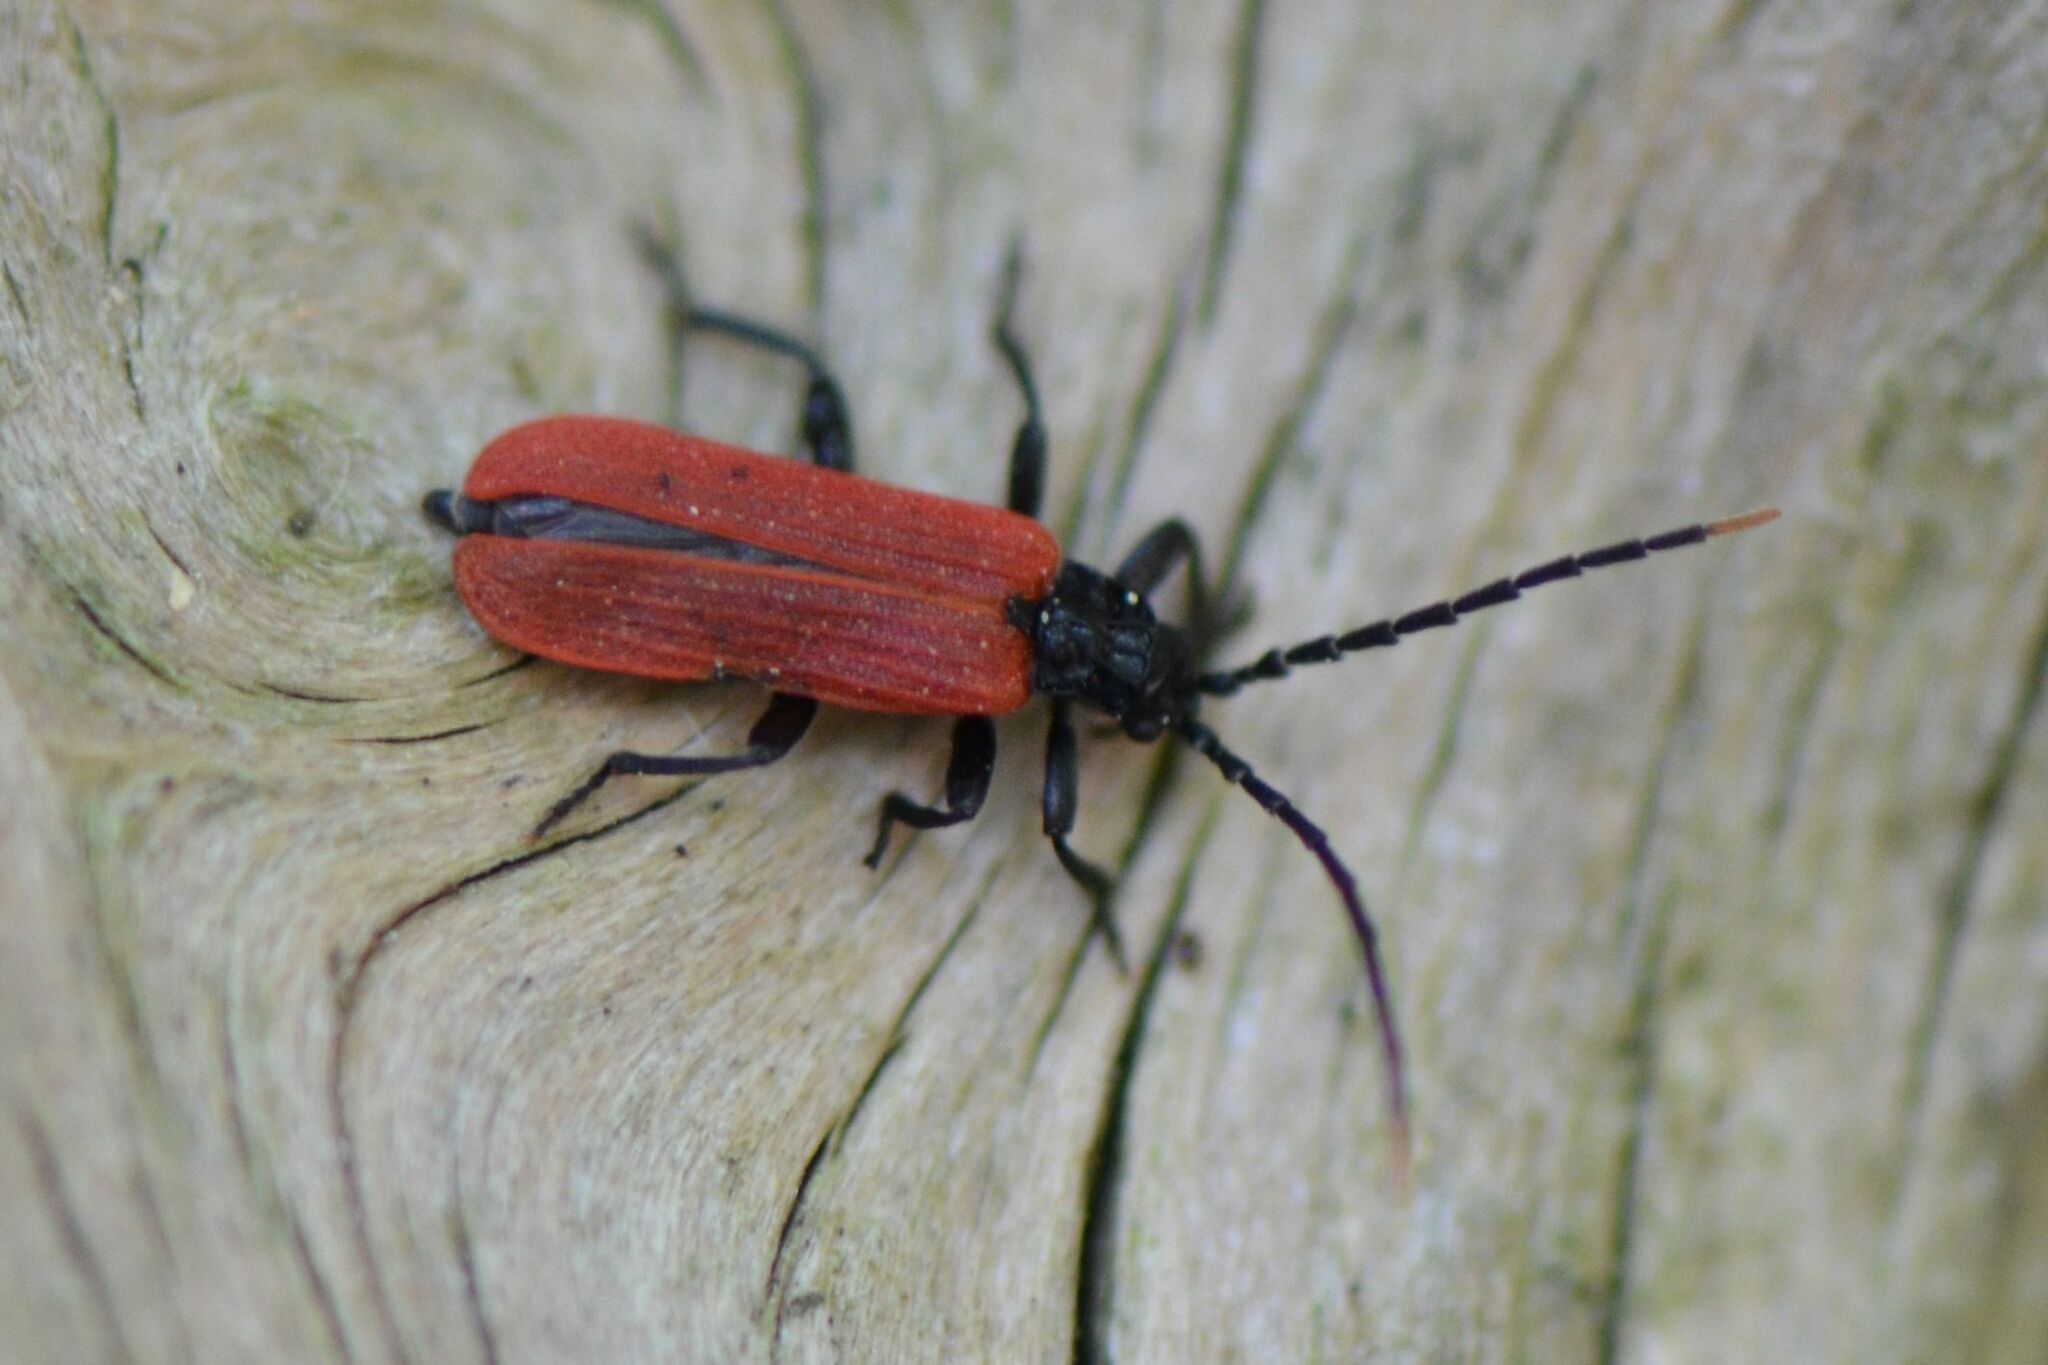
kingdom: Animalia
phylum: Arthropoda
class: Insecta
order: Coleoptera
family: Lycidae
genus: Platycis
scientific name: Platycis minutus
